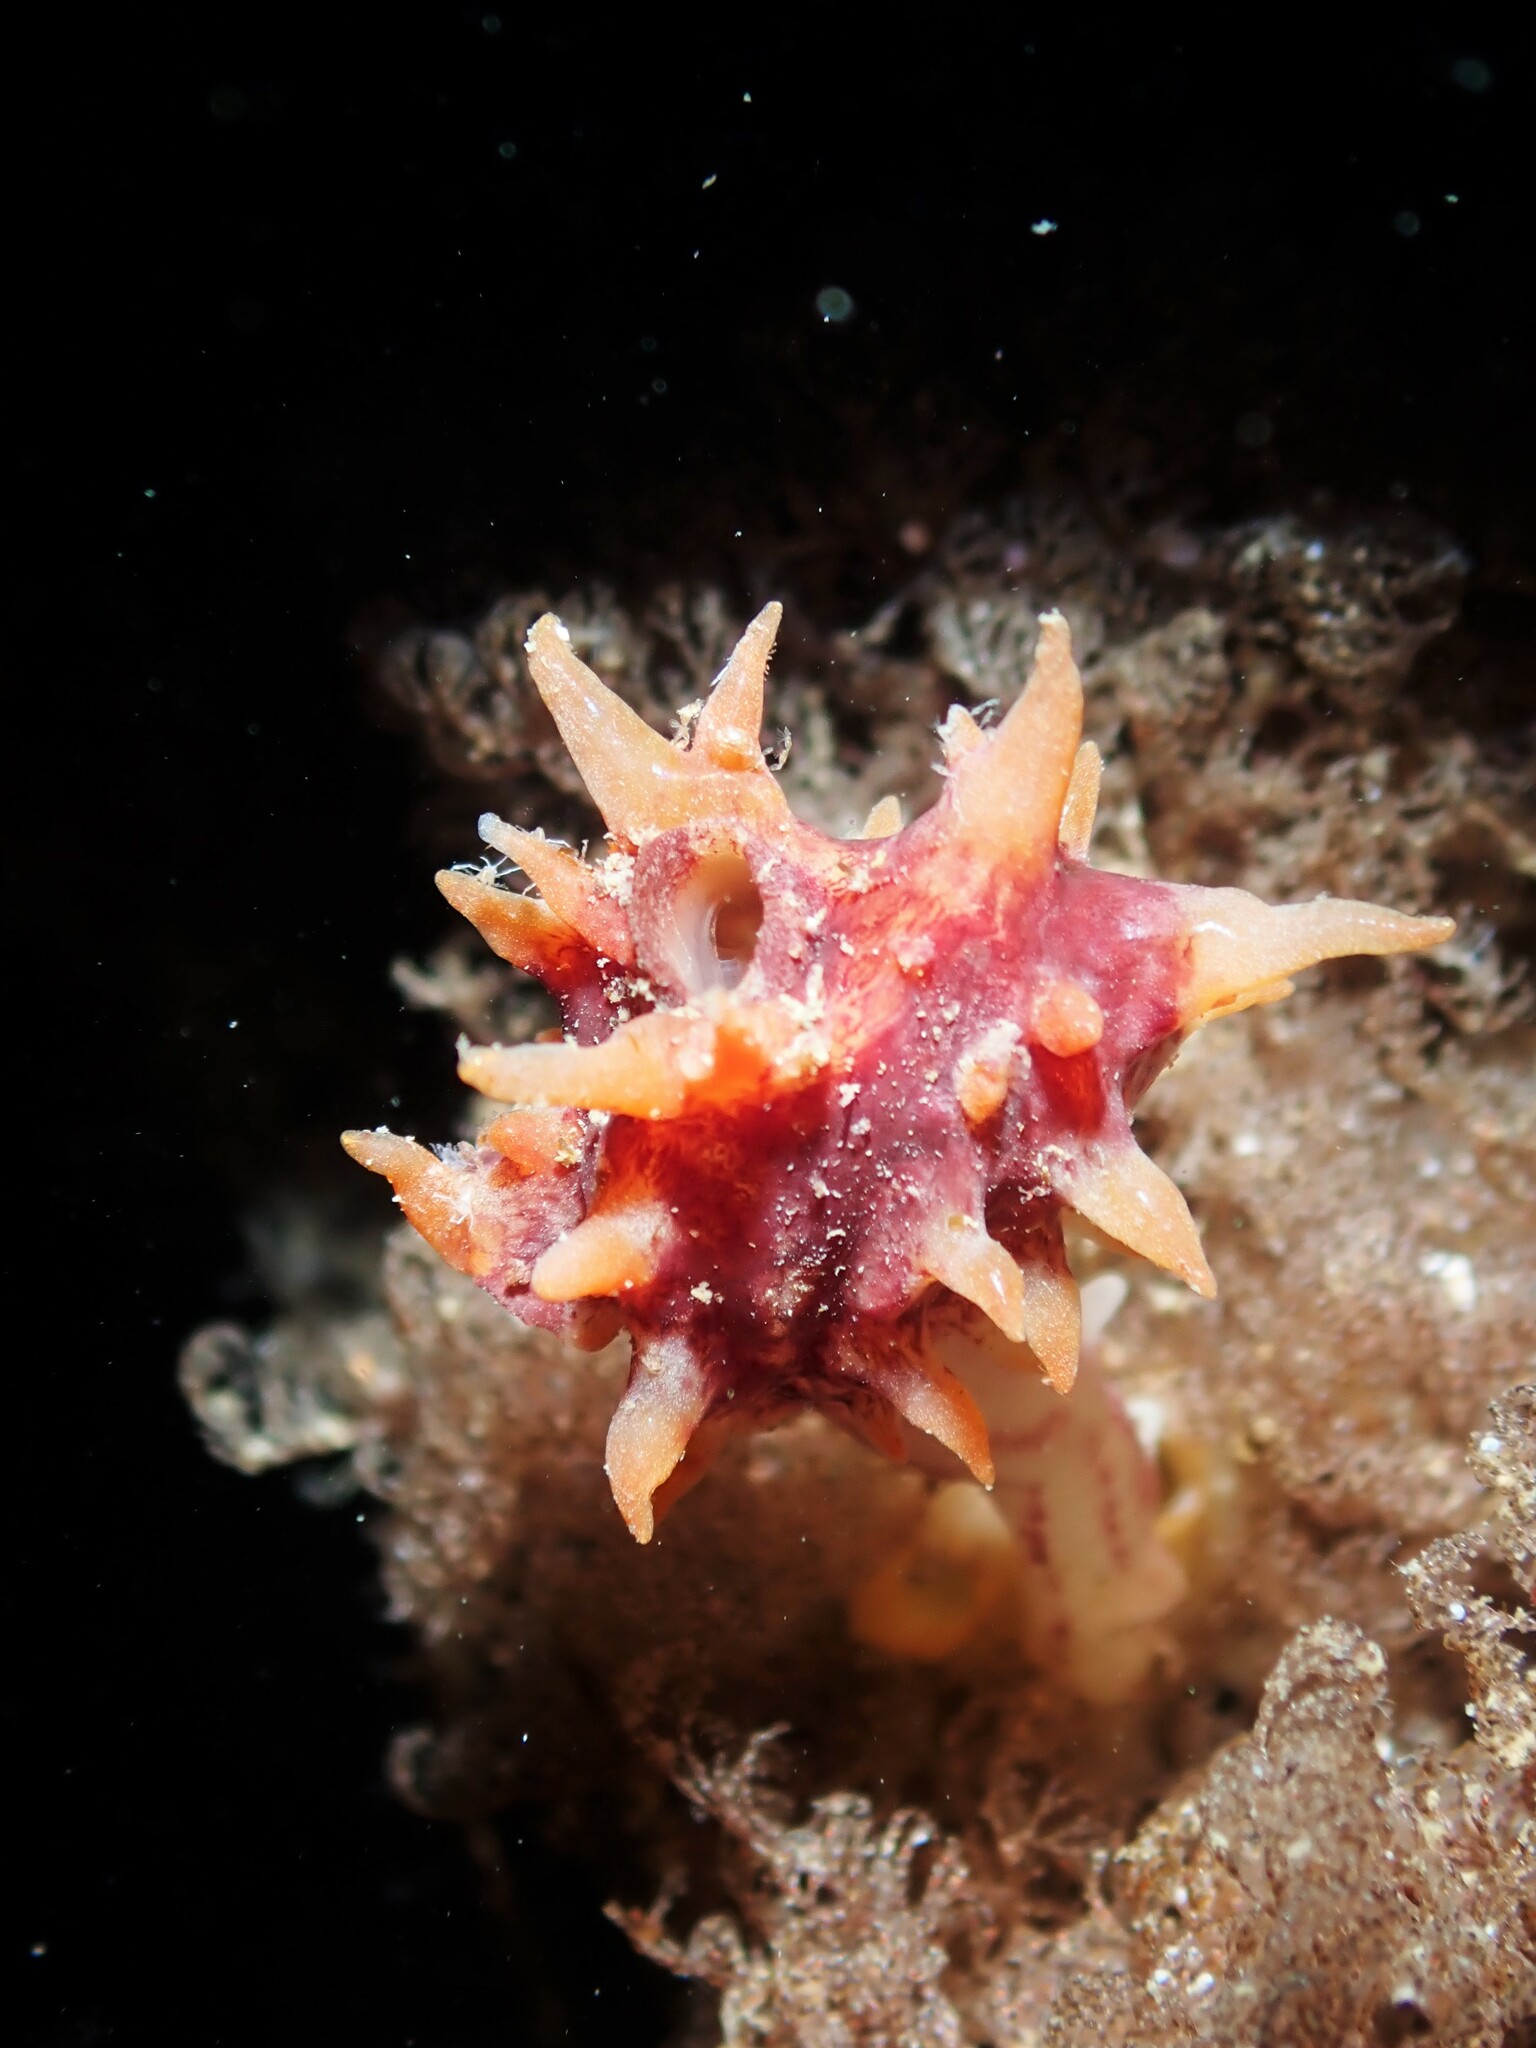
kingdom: Animalia
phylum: Chordata
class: Ascidiacea
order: Stolidobranchia
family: Pyuridae
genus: Pyura
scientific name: Pyura pachydermatina
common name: Sea tulip
